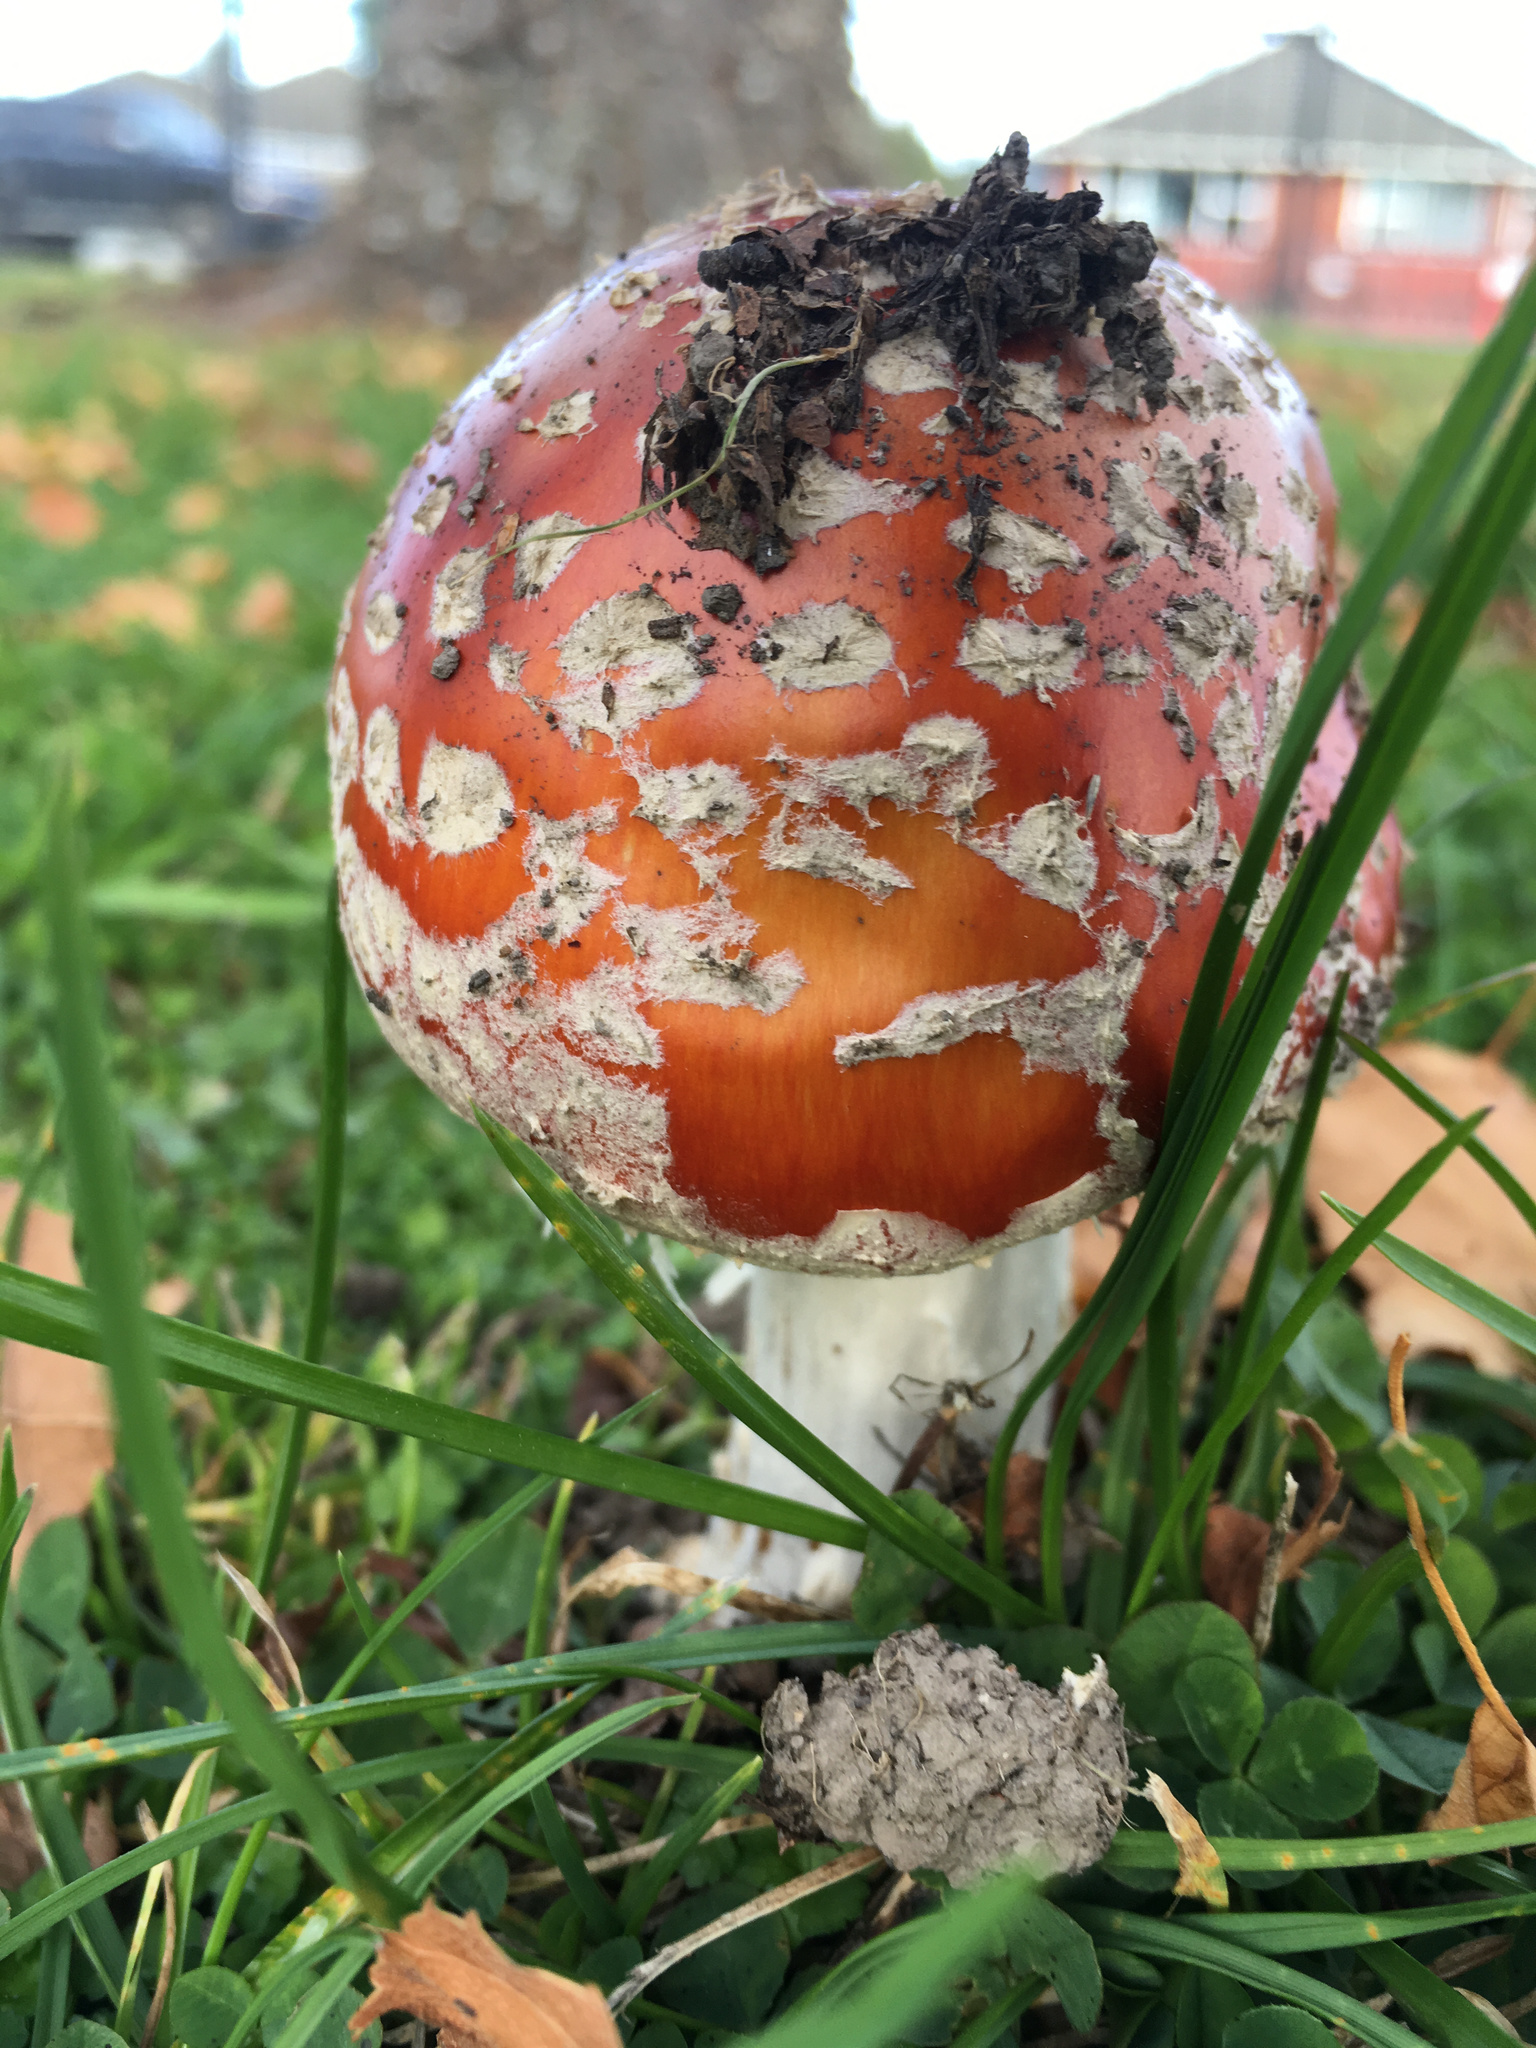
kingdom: Fungi
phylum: Basidiomycota
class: Agaricomycetes
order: Agaricales
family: Amanitaceae
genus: Amanita
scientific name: Amanita muscaria
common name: Fly agaric
